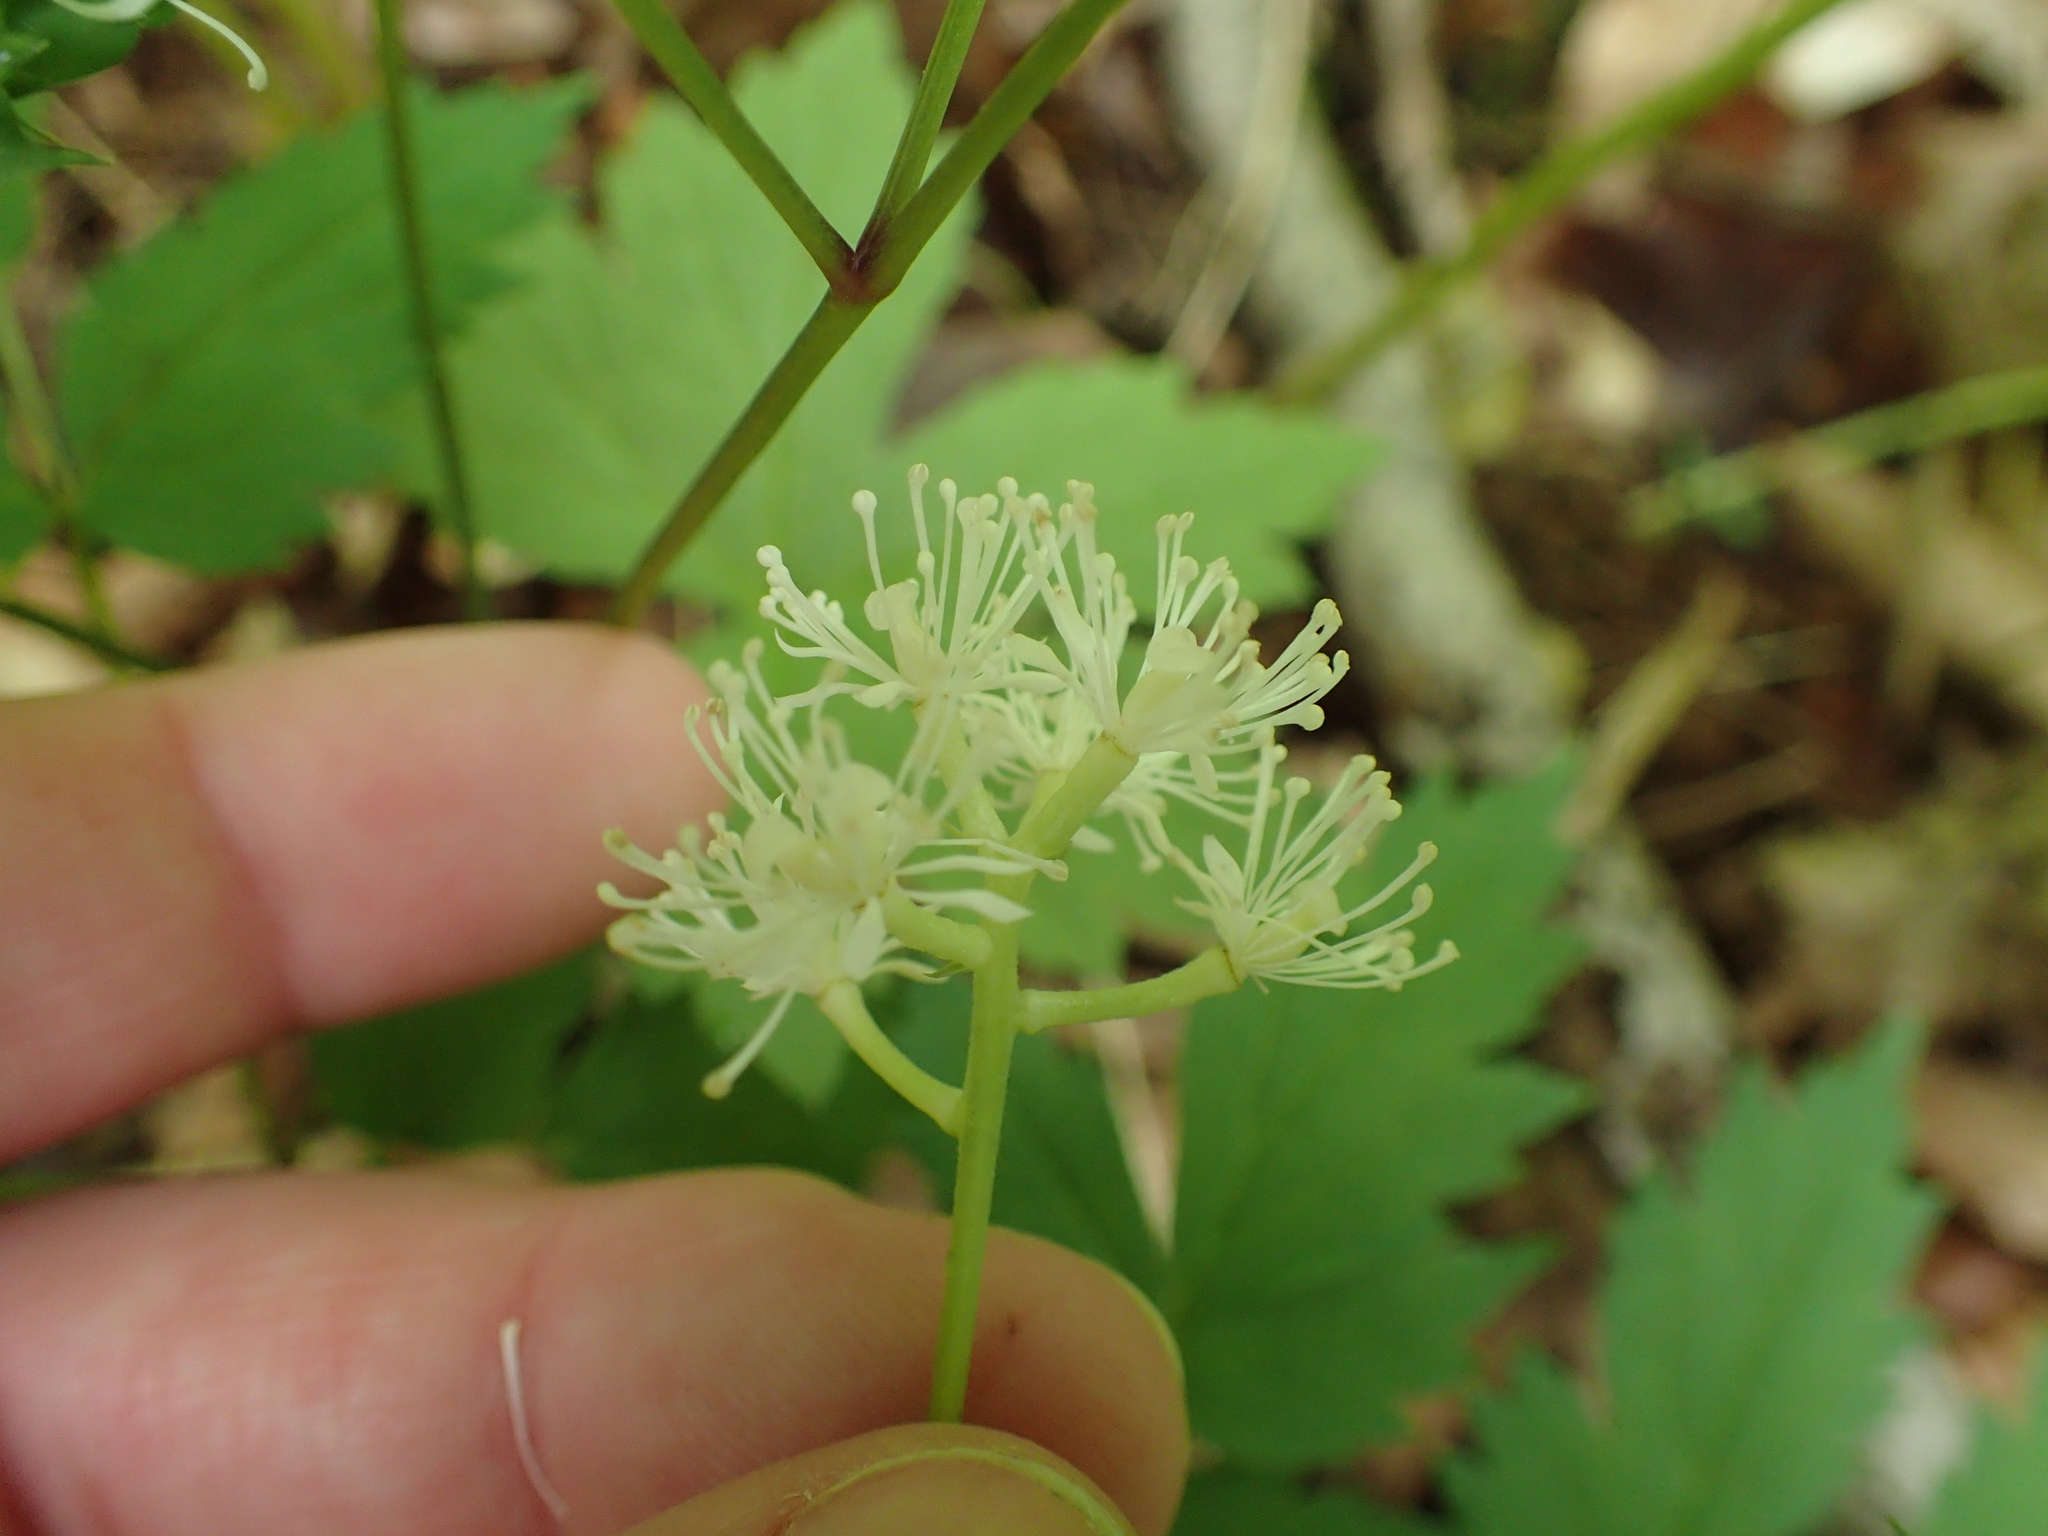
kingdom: Plantae
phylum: Tracheophyta
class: Magnoliopsida
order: Ranunculales
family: Ranunculaceae
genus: Actaea
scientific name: Actaea pachypoda
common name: Doll's-eyes
